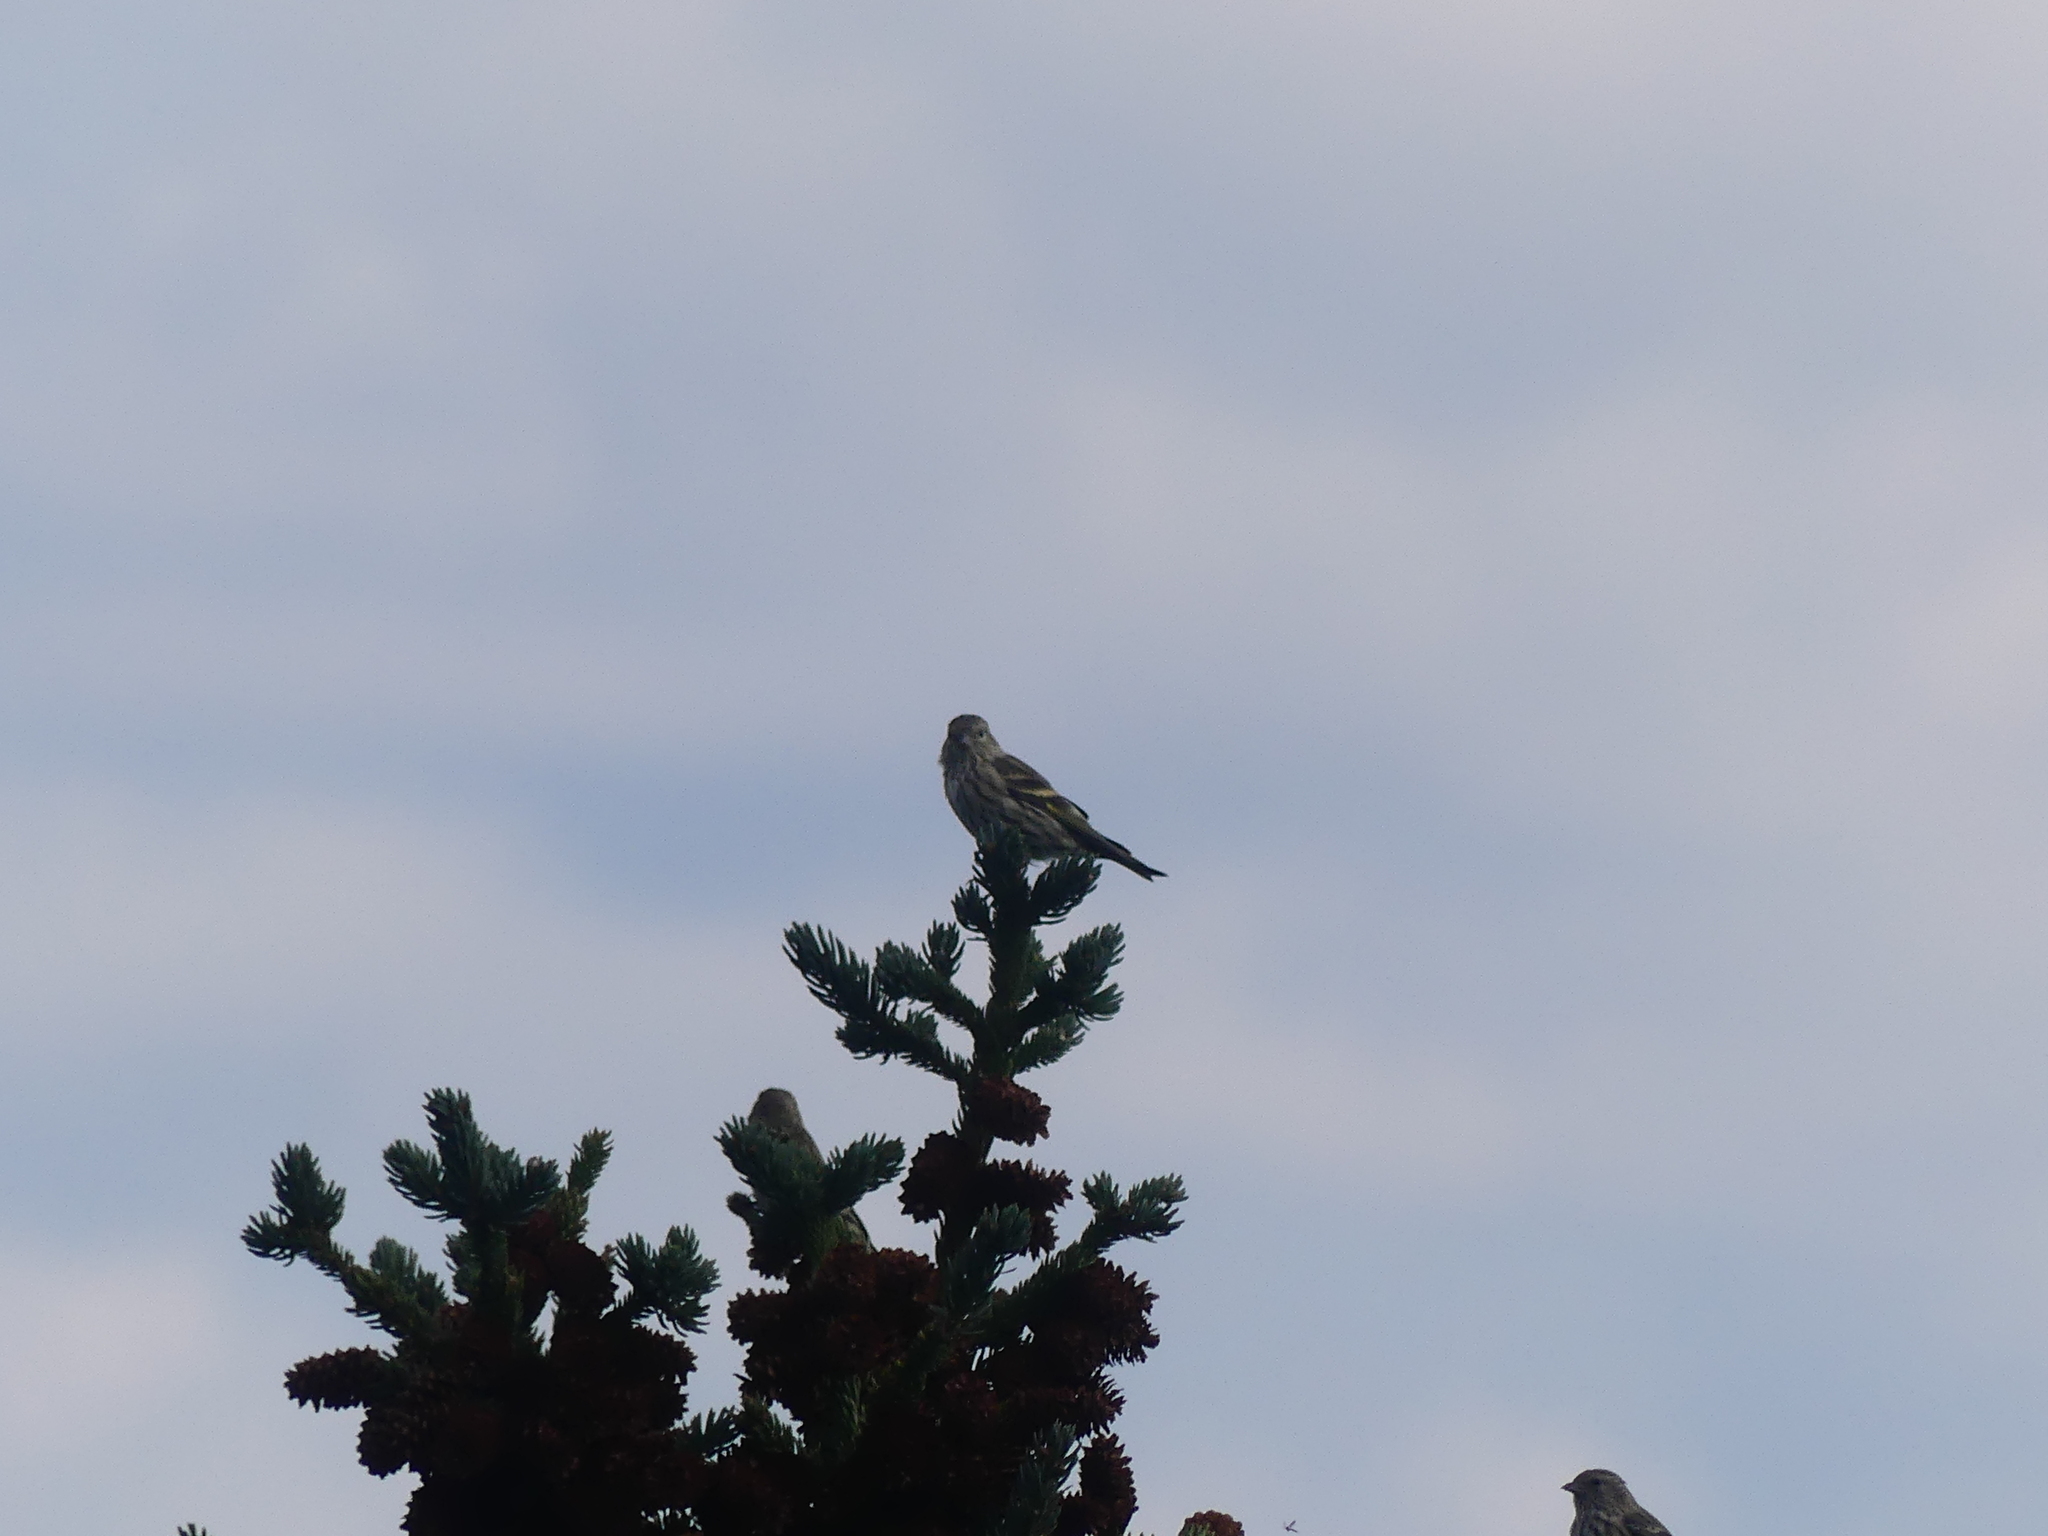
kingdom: Animalia
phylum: Chordata
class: Aves
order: Passeriformes
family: Fringillidae
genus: Spinus
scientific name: Spinus pinus
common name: Pine siskin
